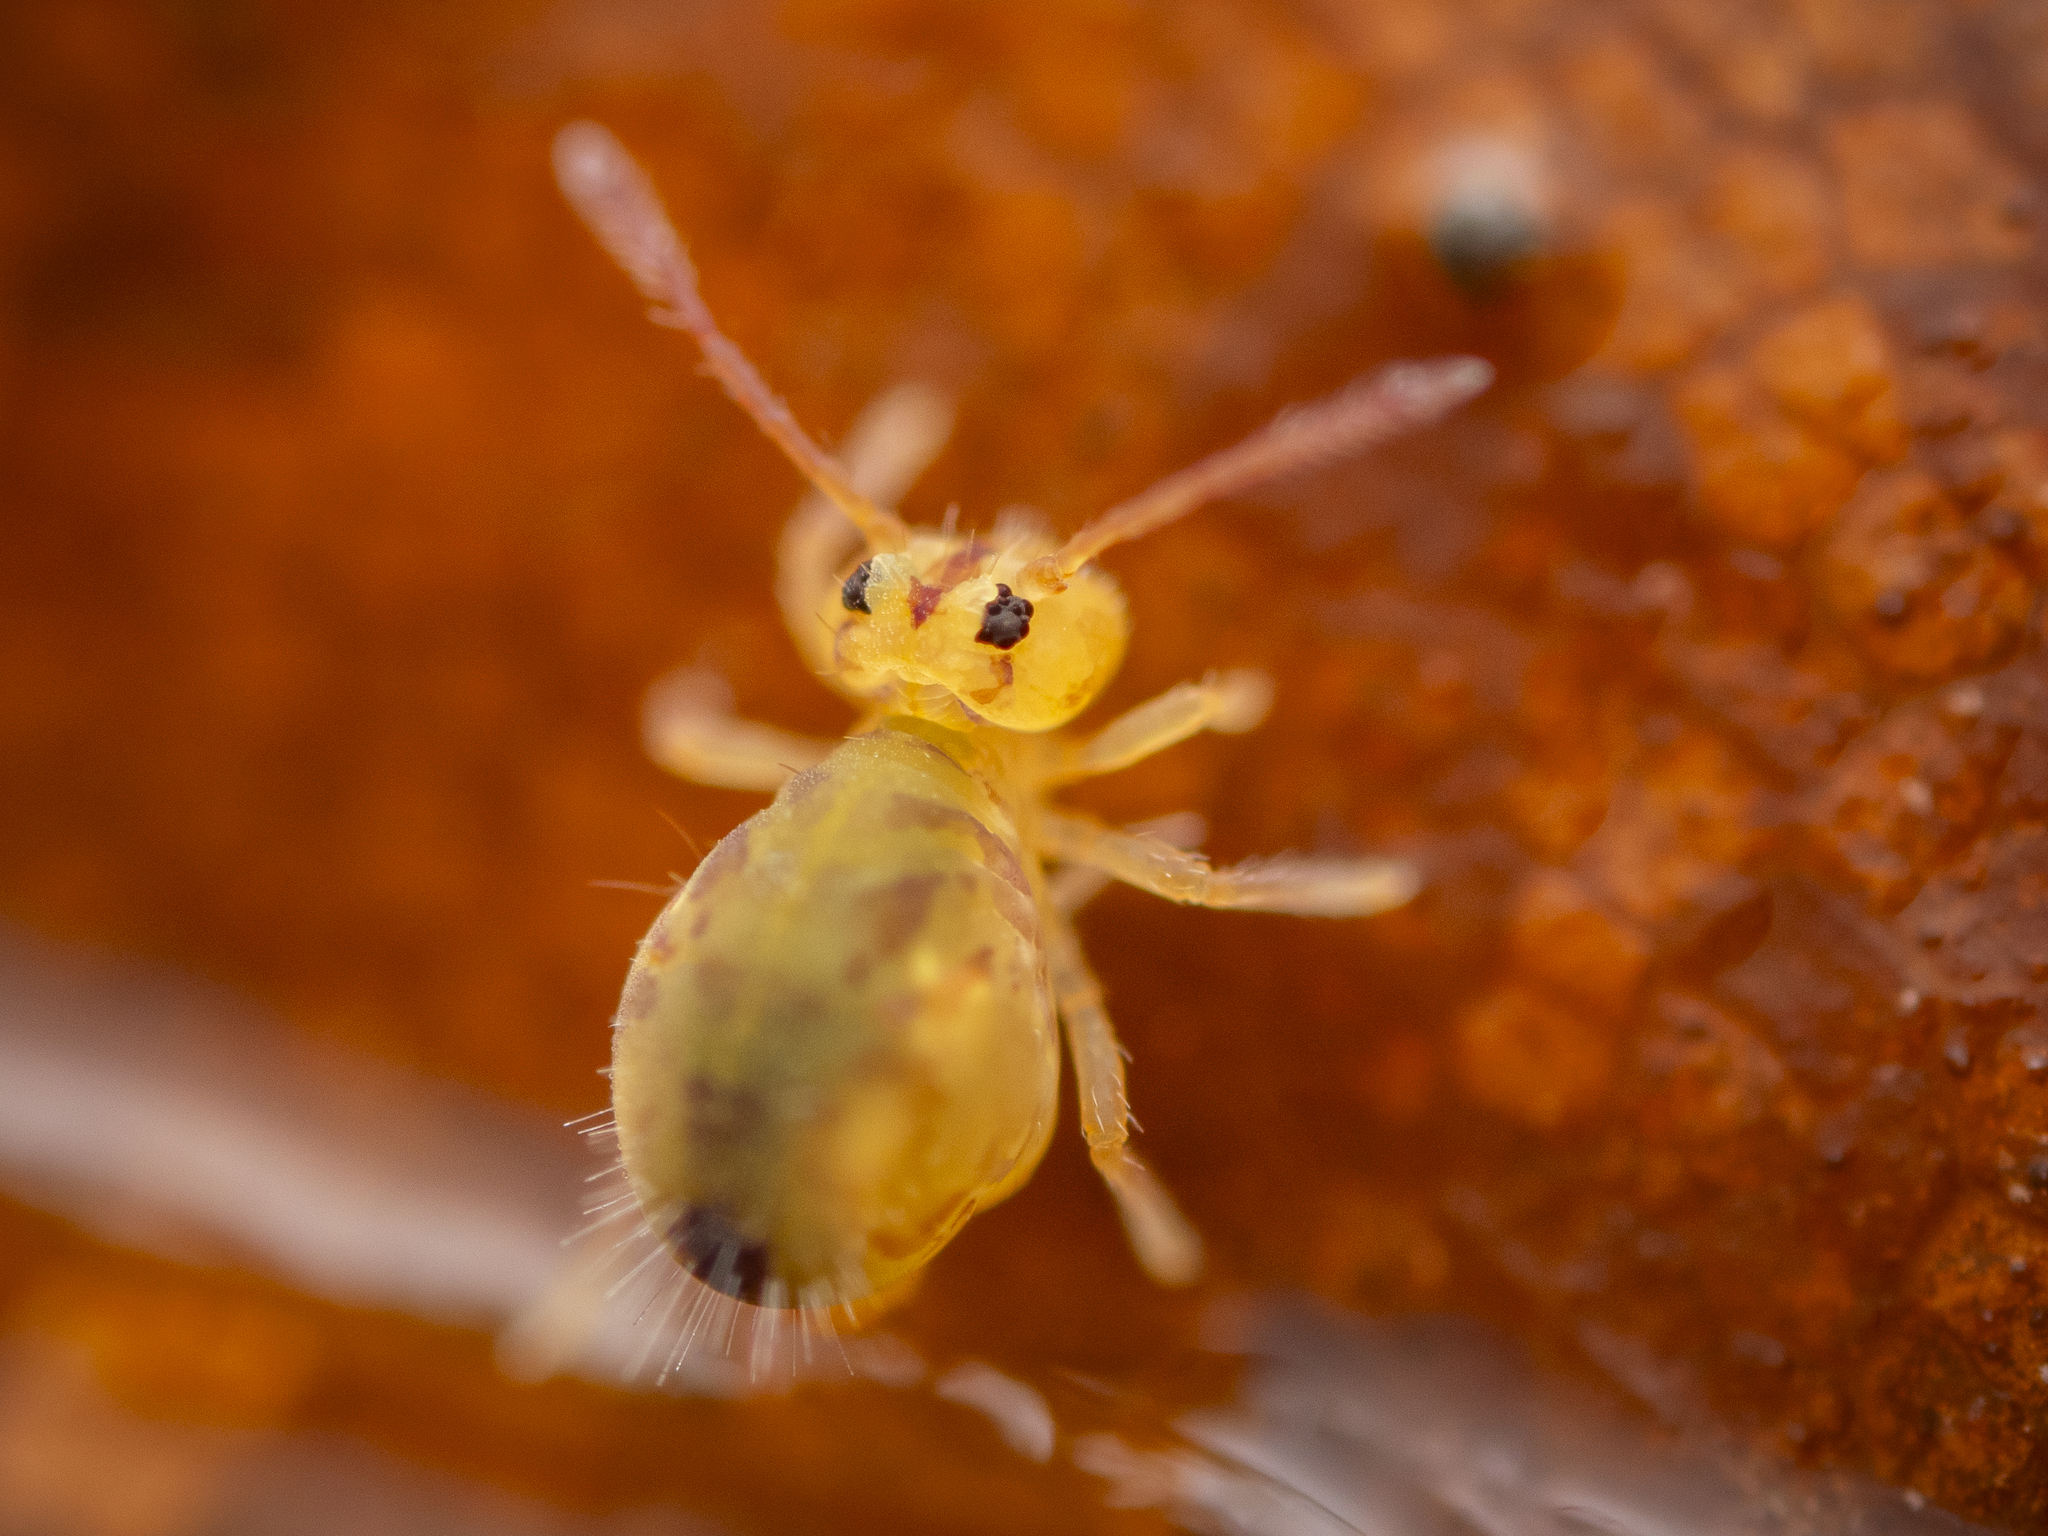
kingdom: Animalia
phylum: Arthropoda
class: Collembola
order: Symphypleona
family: Dicyrtomidae
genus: Dicyrtomina
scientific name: Dicyrtomina ornata
